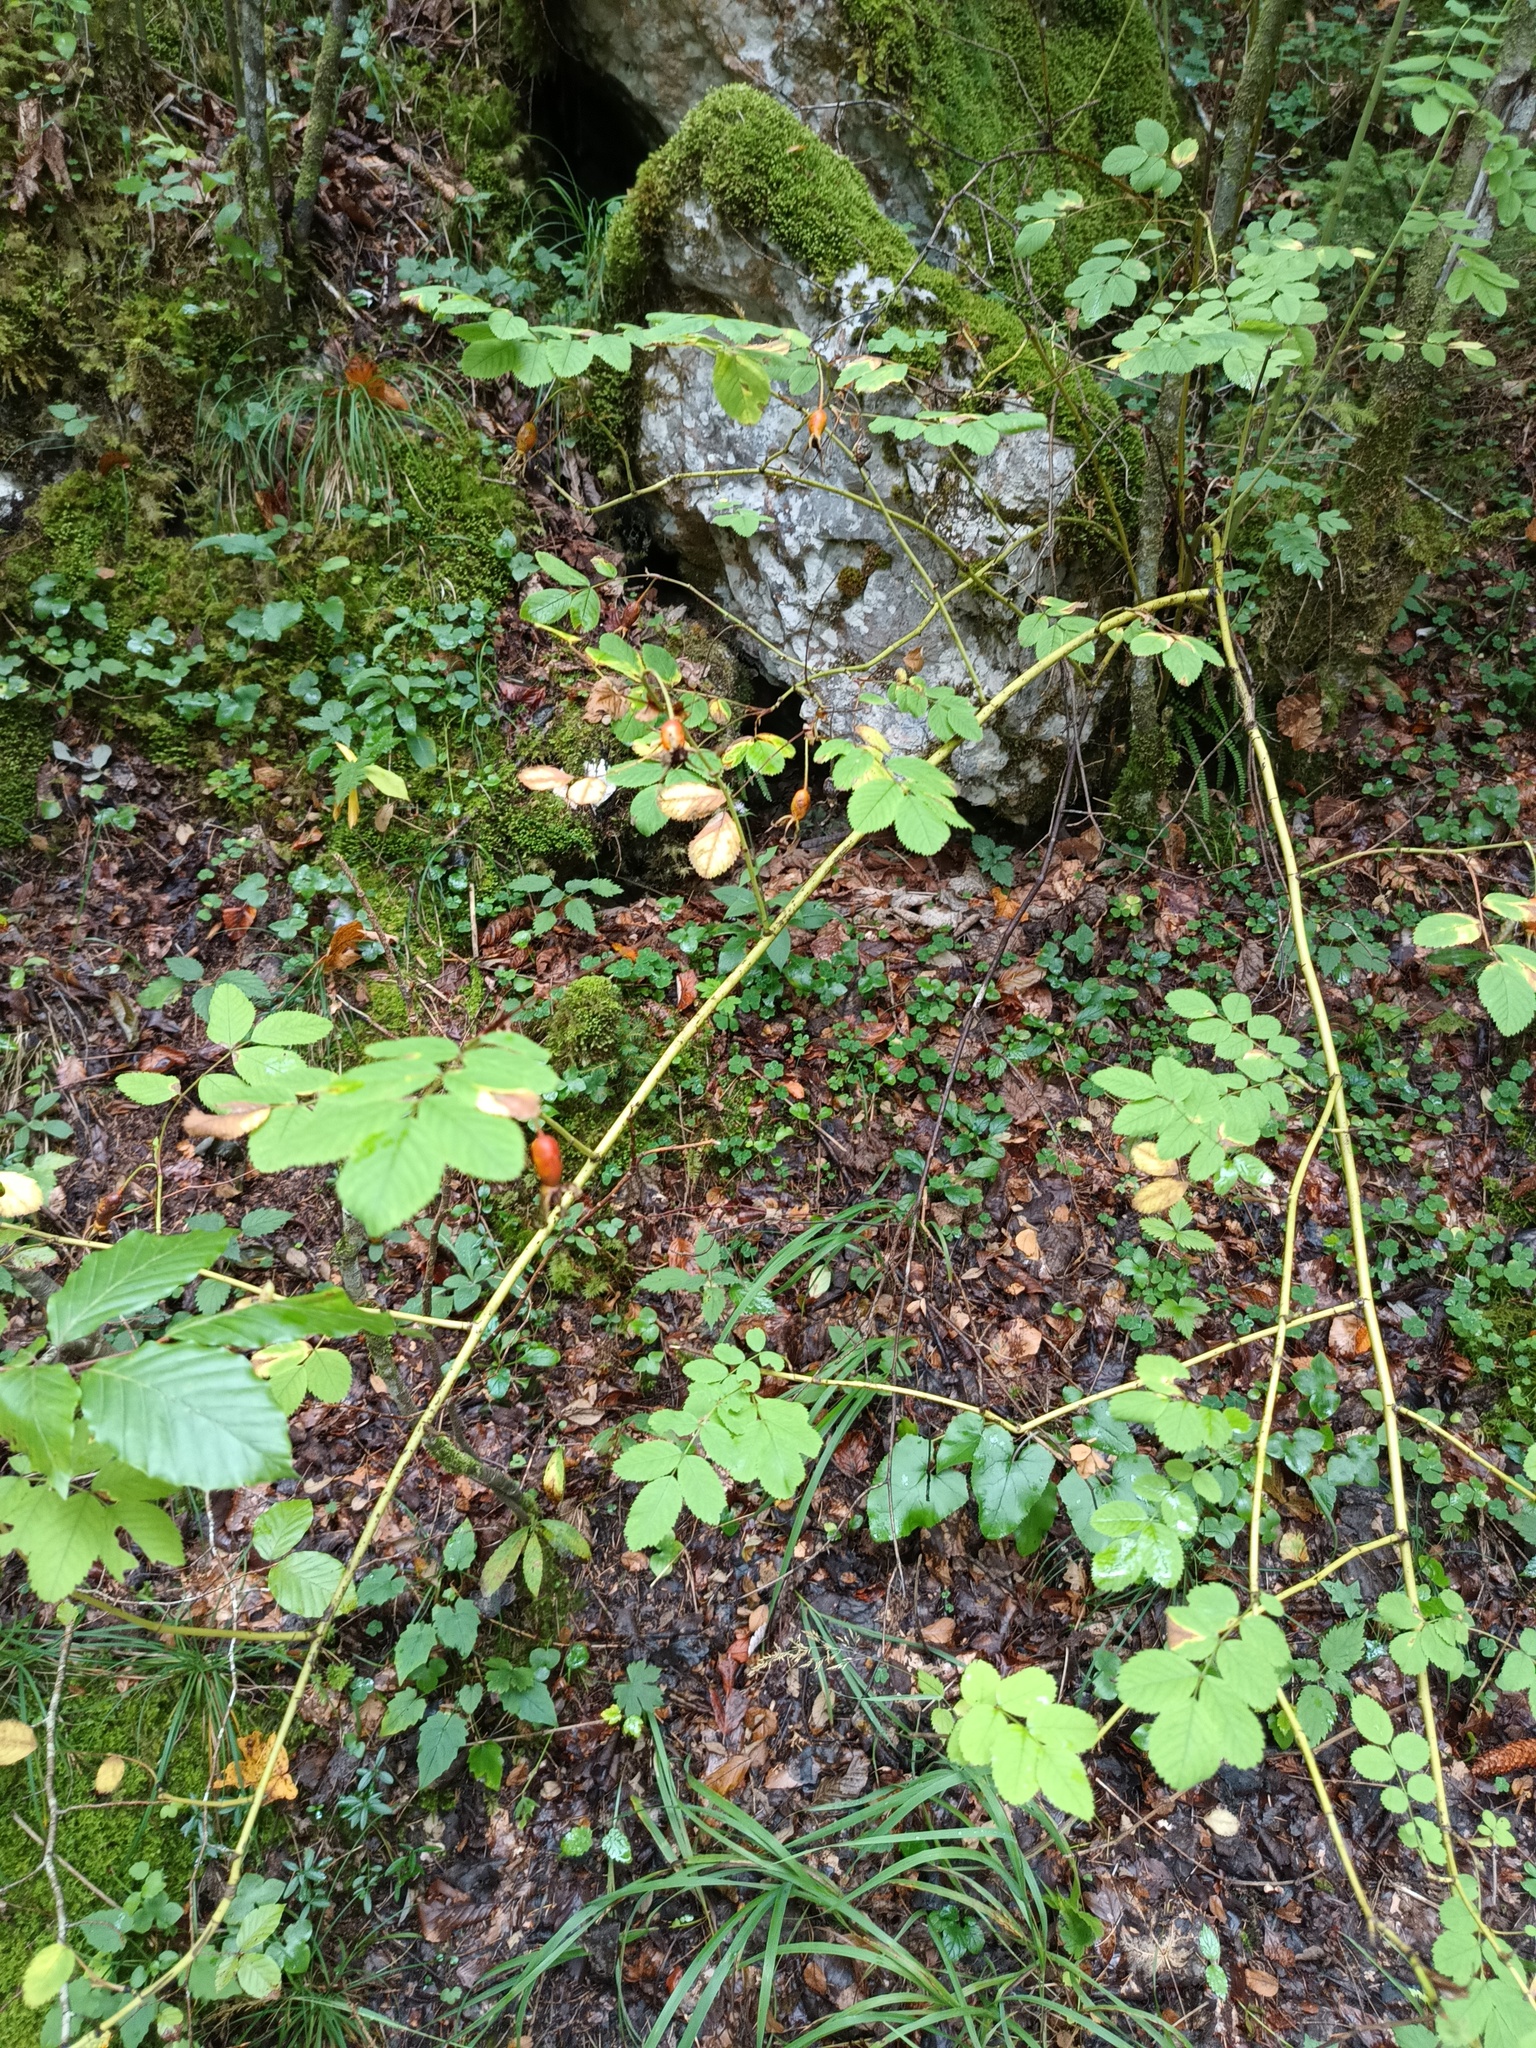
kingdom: Plantae
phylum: Tracheophyta
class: Magnoliopsida
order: Rosales
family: Rosaceae
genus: Rosa
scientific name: Rosa pendulina
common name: Alpine rose
